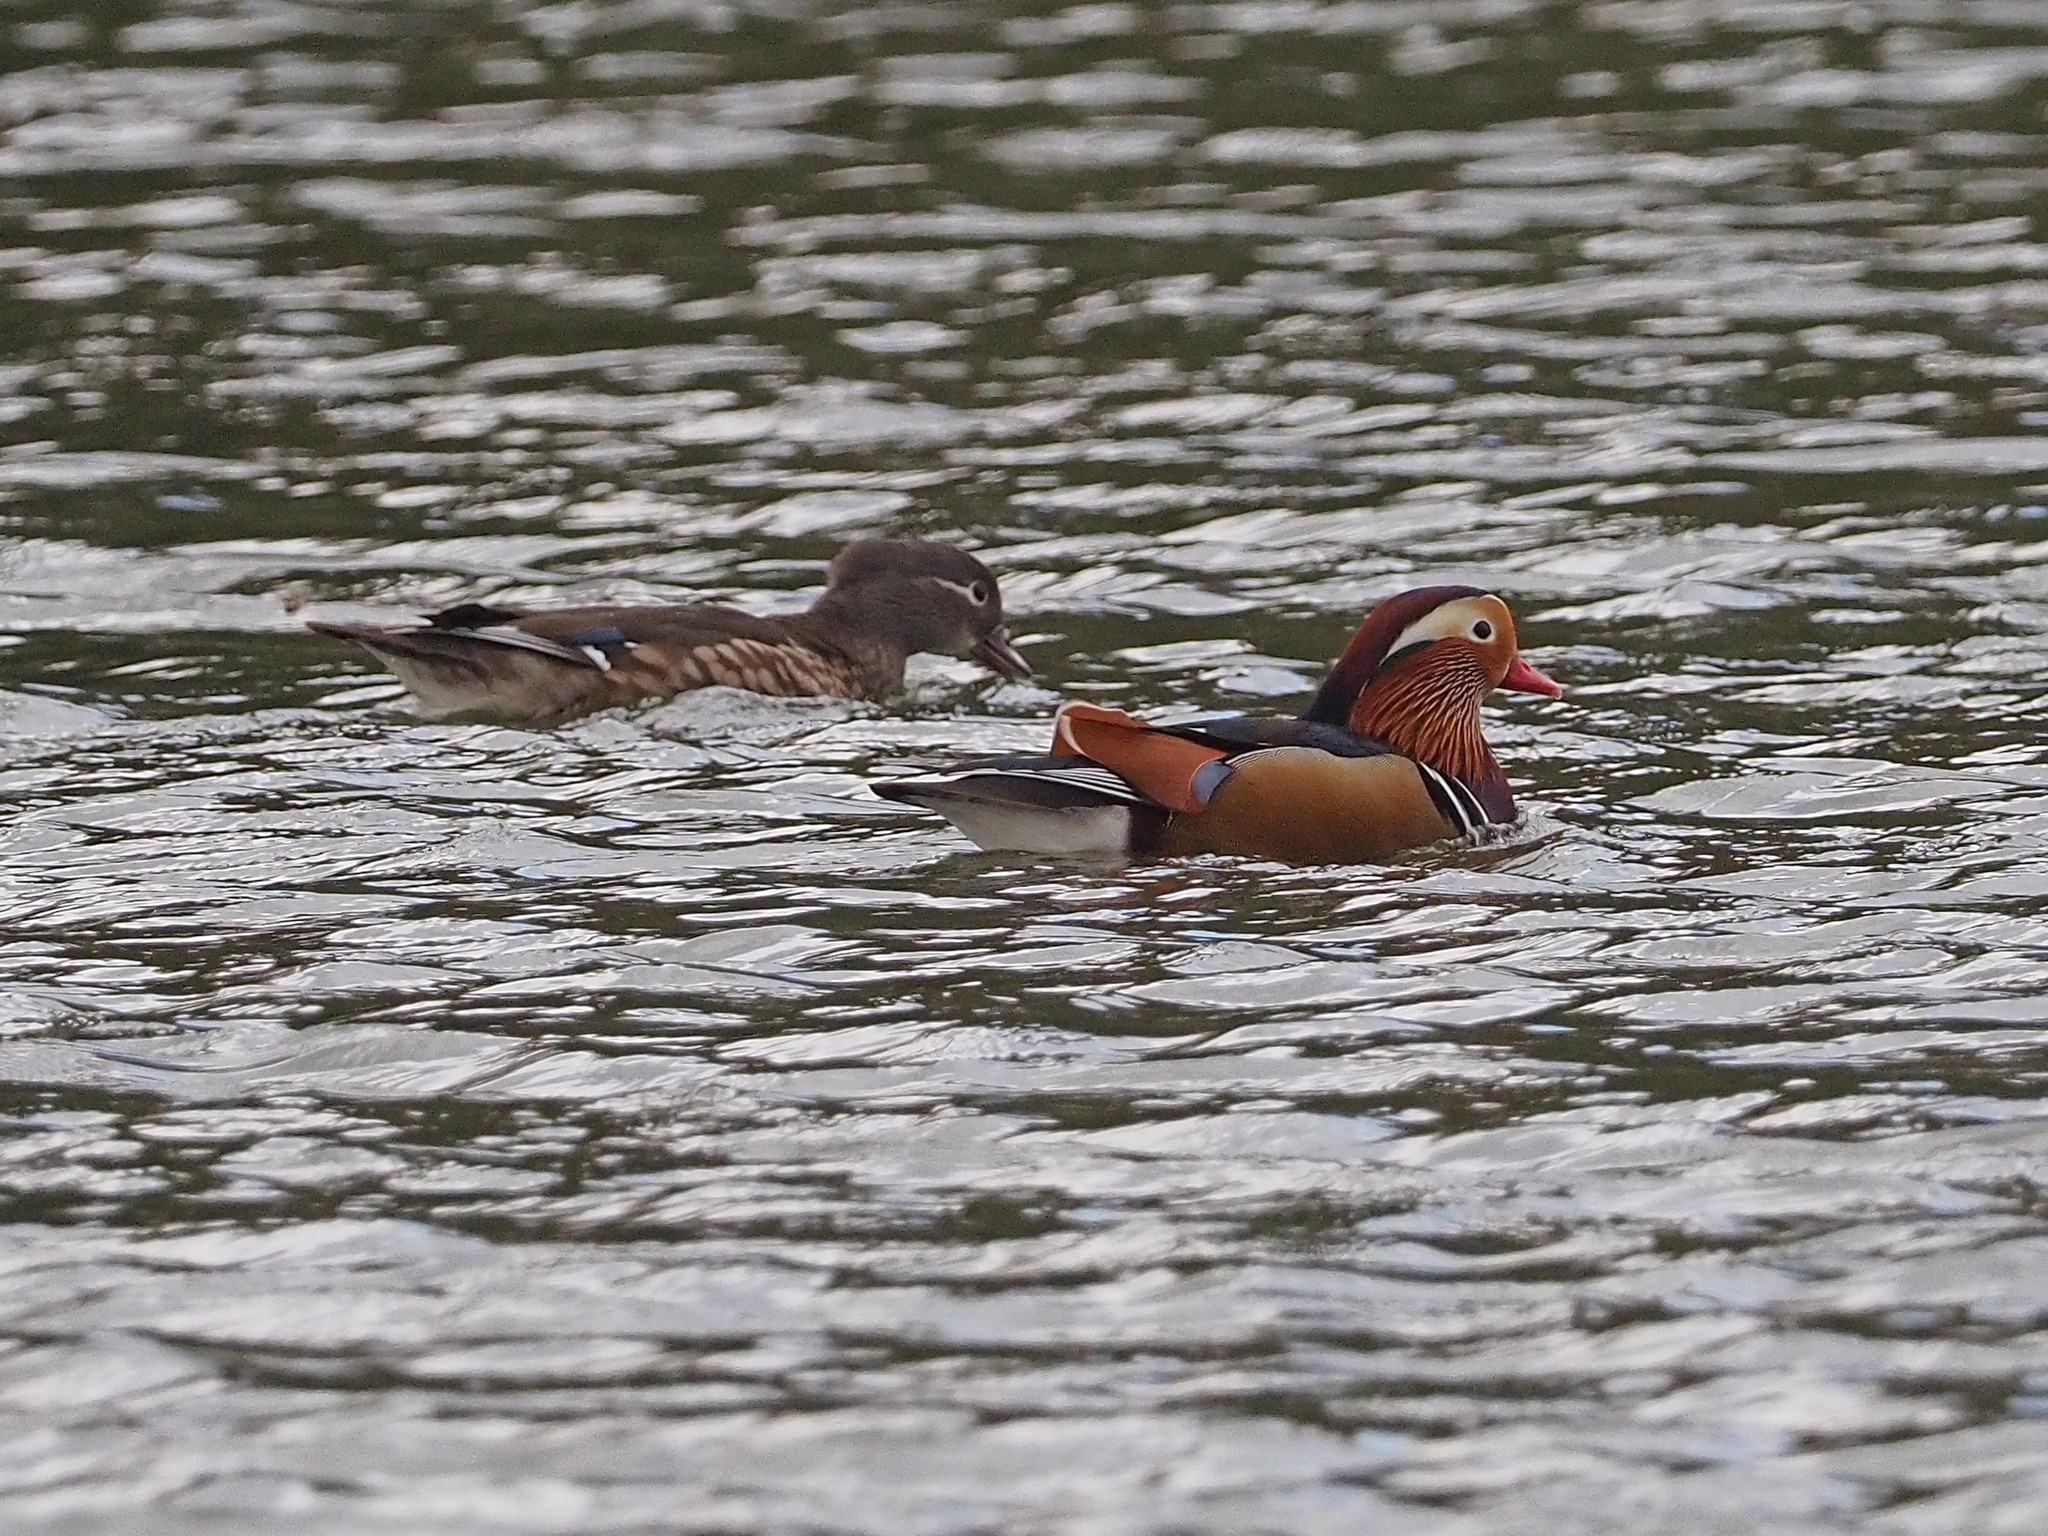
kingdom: Animalia
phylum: Chordata
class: Aves
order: Anseriformes
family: Anatidae
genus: Aix
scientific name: Aix galericulata
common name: Mandarin duck
